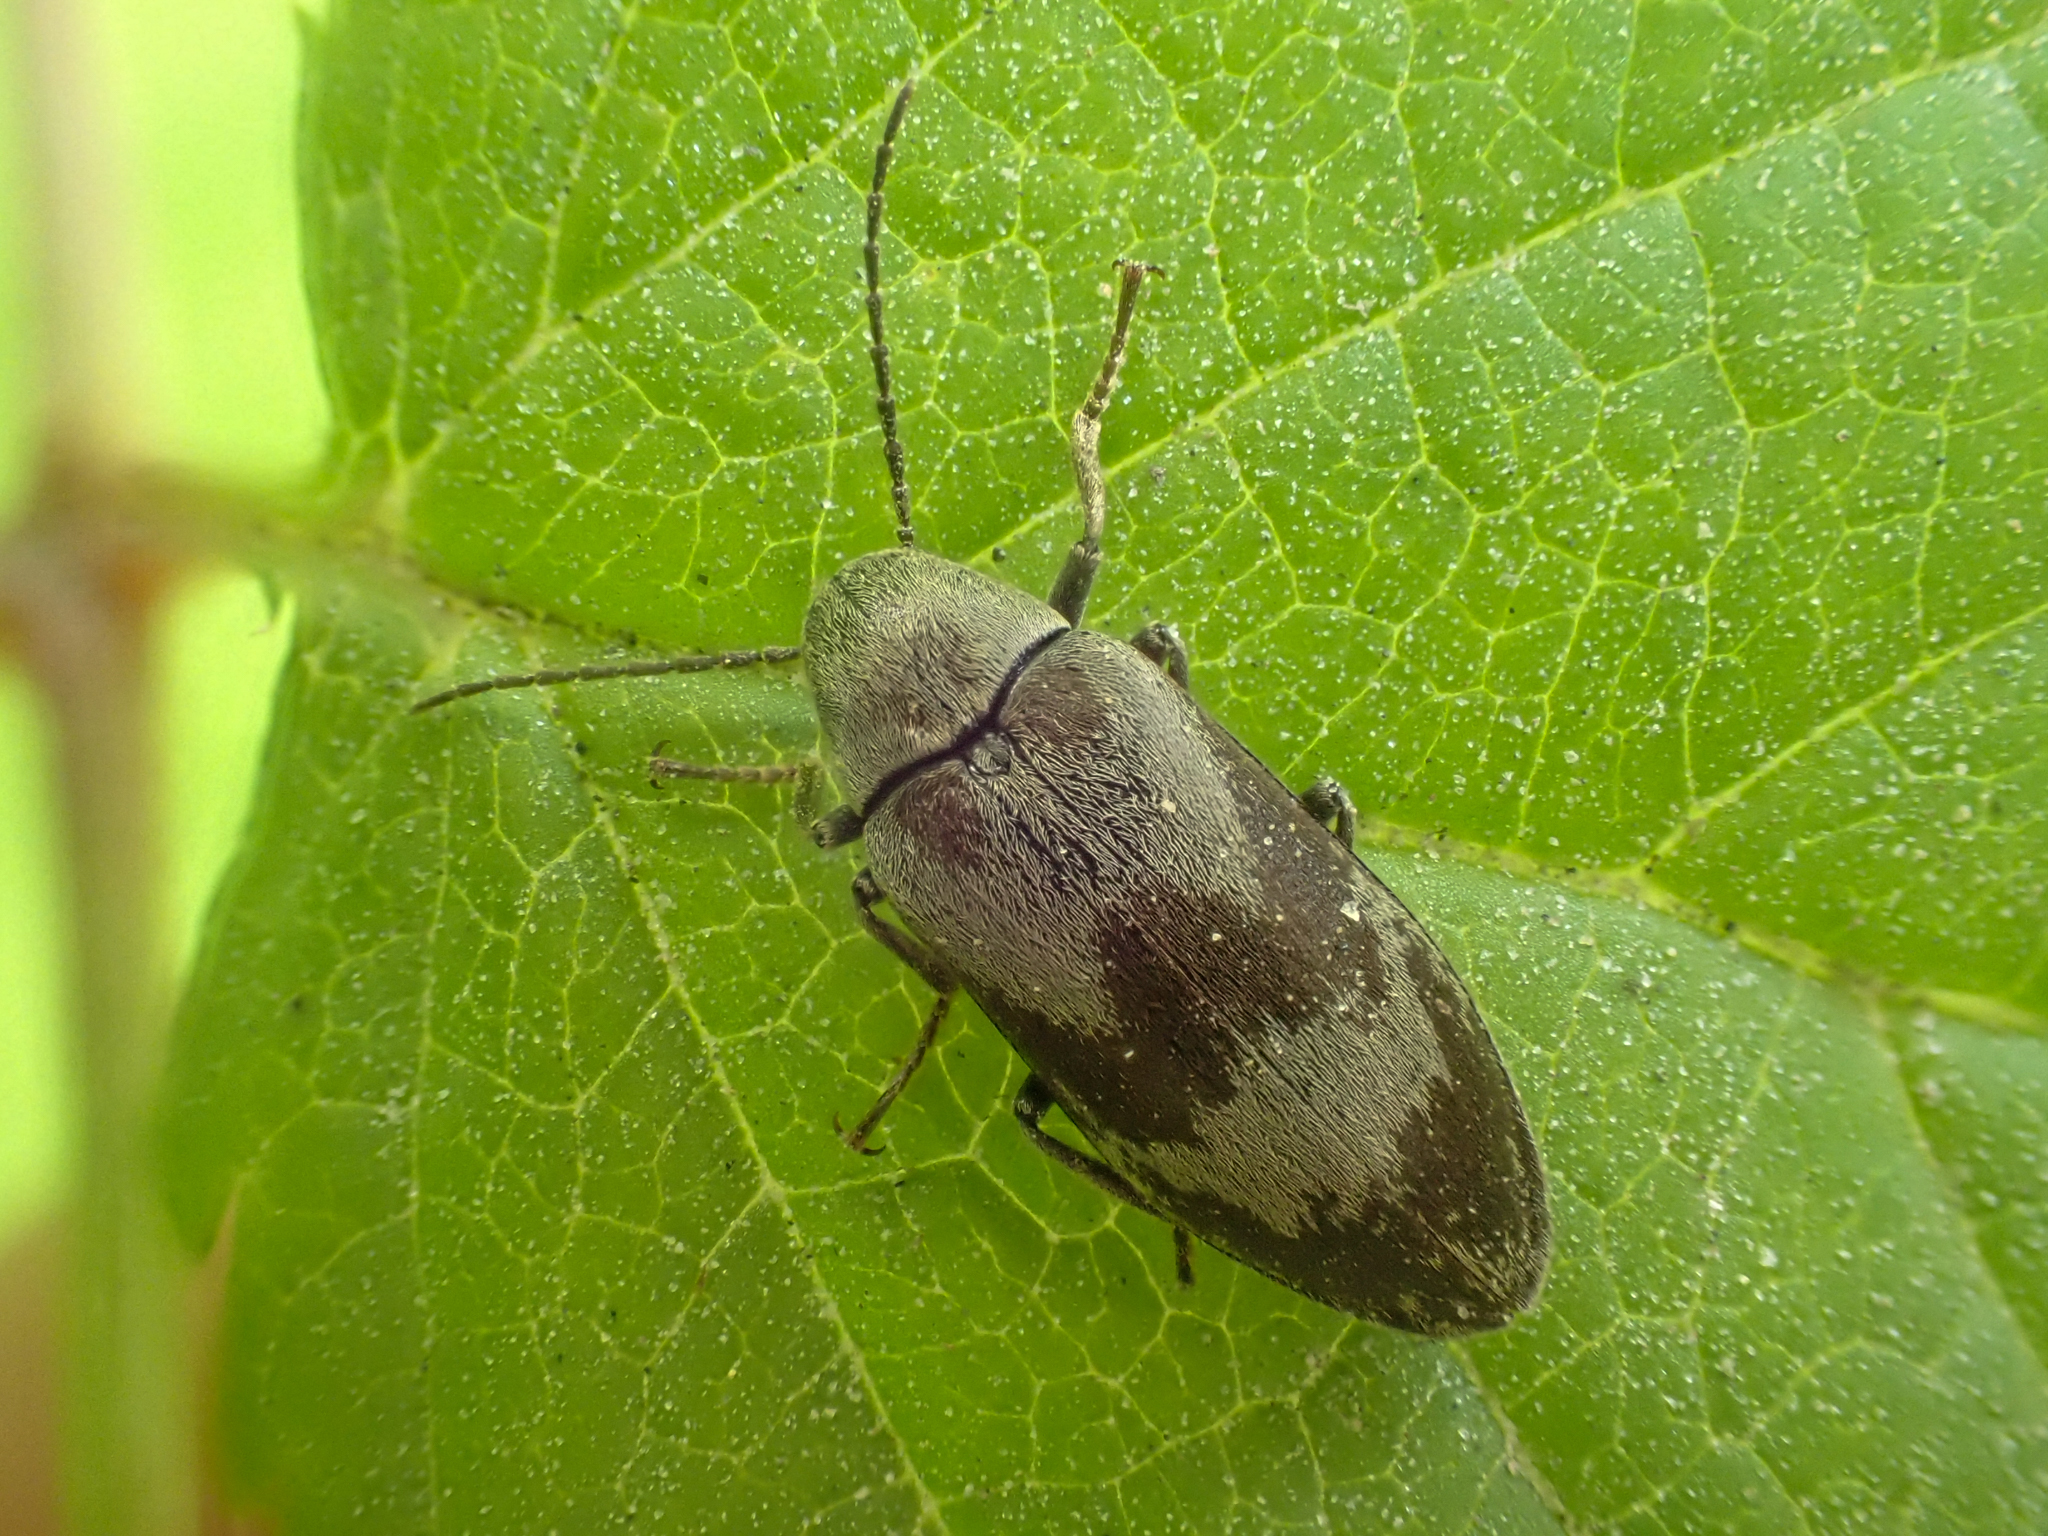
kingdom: Animalia
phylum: Arthropoda
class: Insecta
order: Coleoptera
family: Ptilodactylidae
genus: Araeopidius
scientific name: Araeopidius monachus
